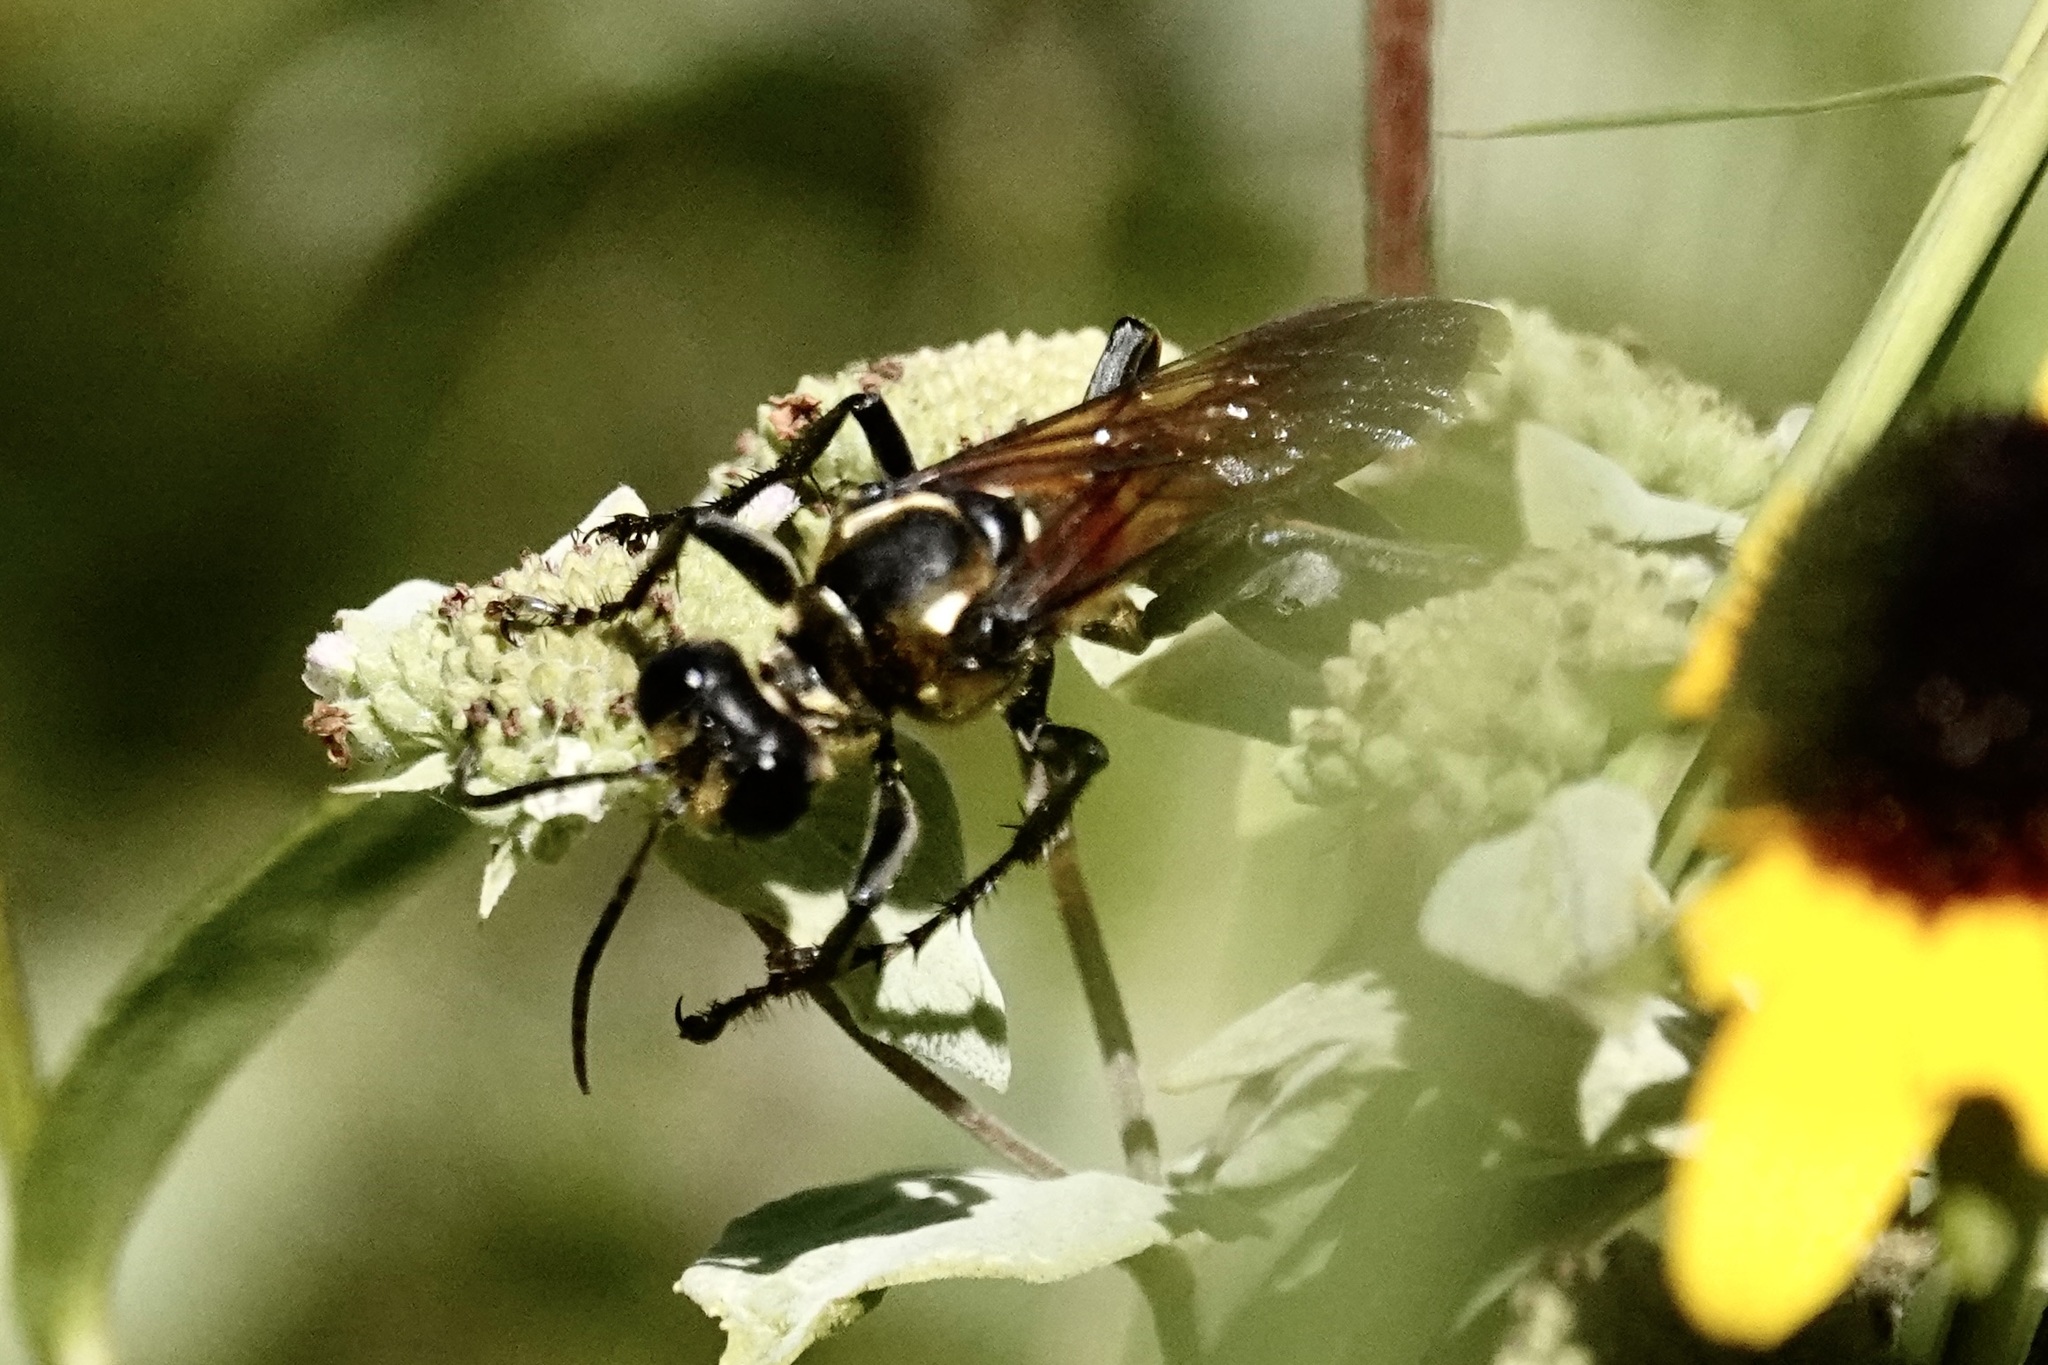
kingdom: Animalia
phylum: Arthropoda
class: Insecta
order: Hymenoptera
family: Sphecidae
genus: Sphex
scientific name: Sphex habenus
